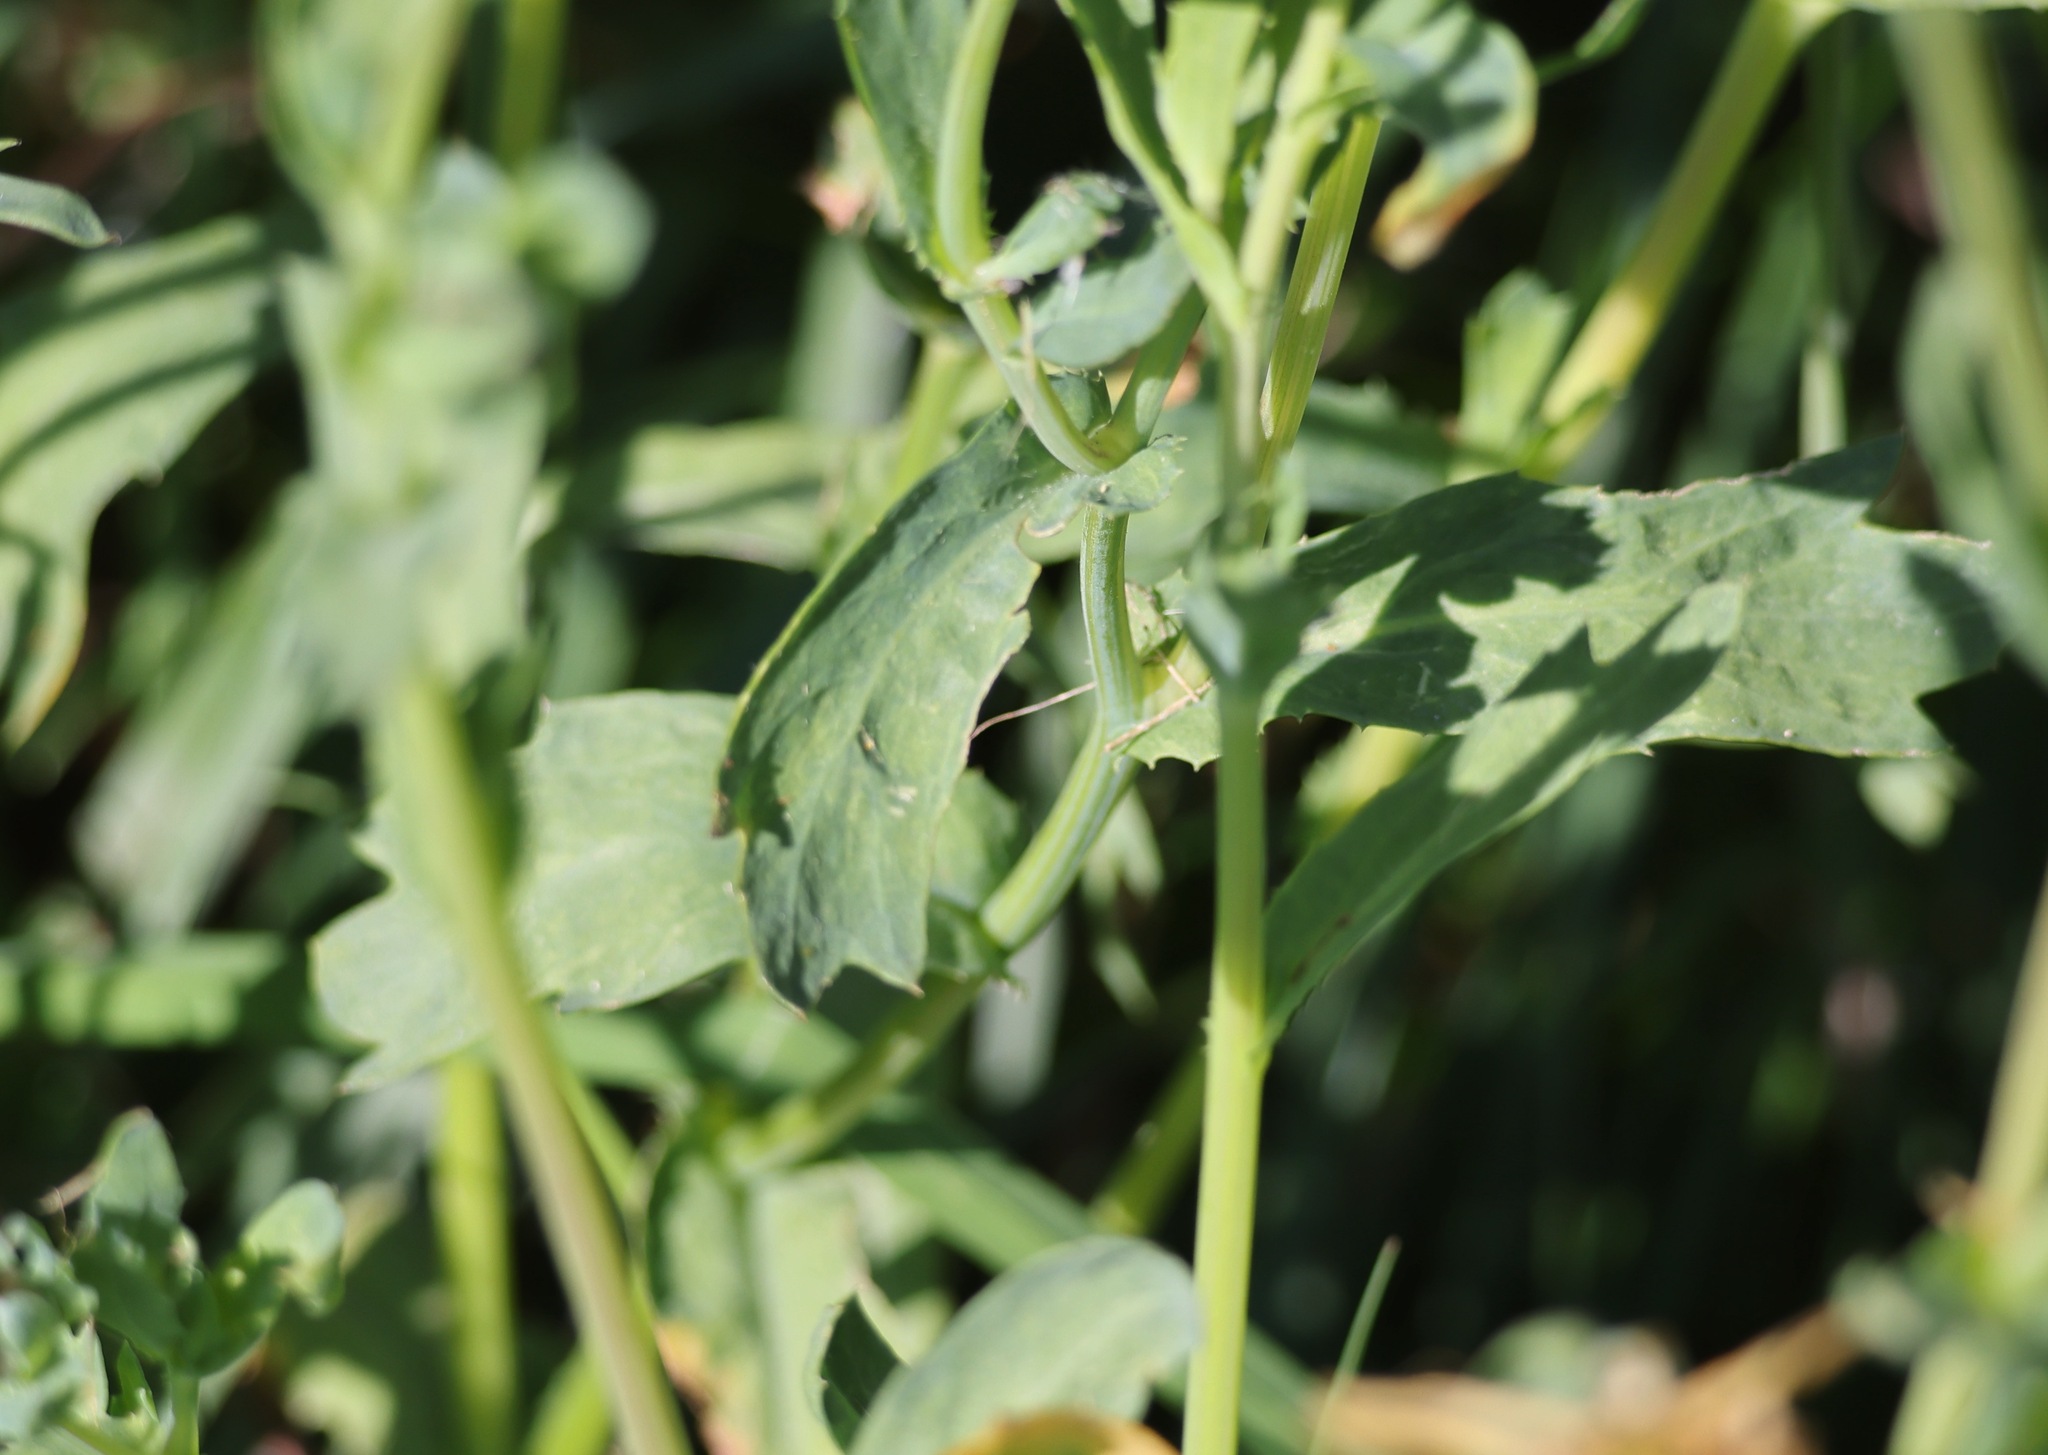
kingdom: Plantae
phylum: Tracheophyta
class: Magnoliopsida
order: Asterales
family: Asteraceae
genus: Glebionis
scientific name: Glebionis segetum
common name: Corndaisy
